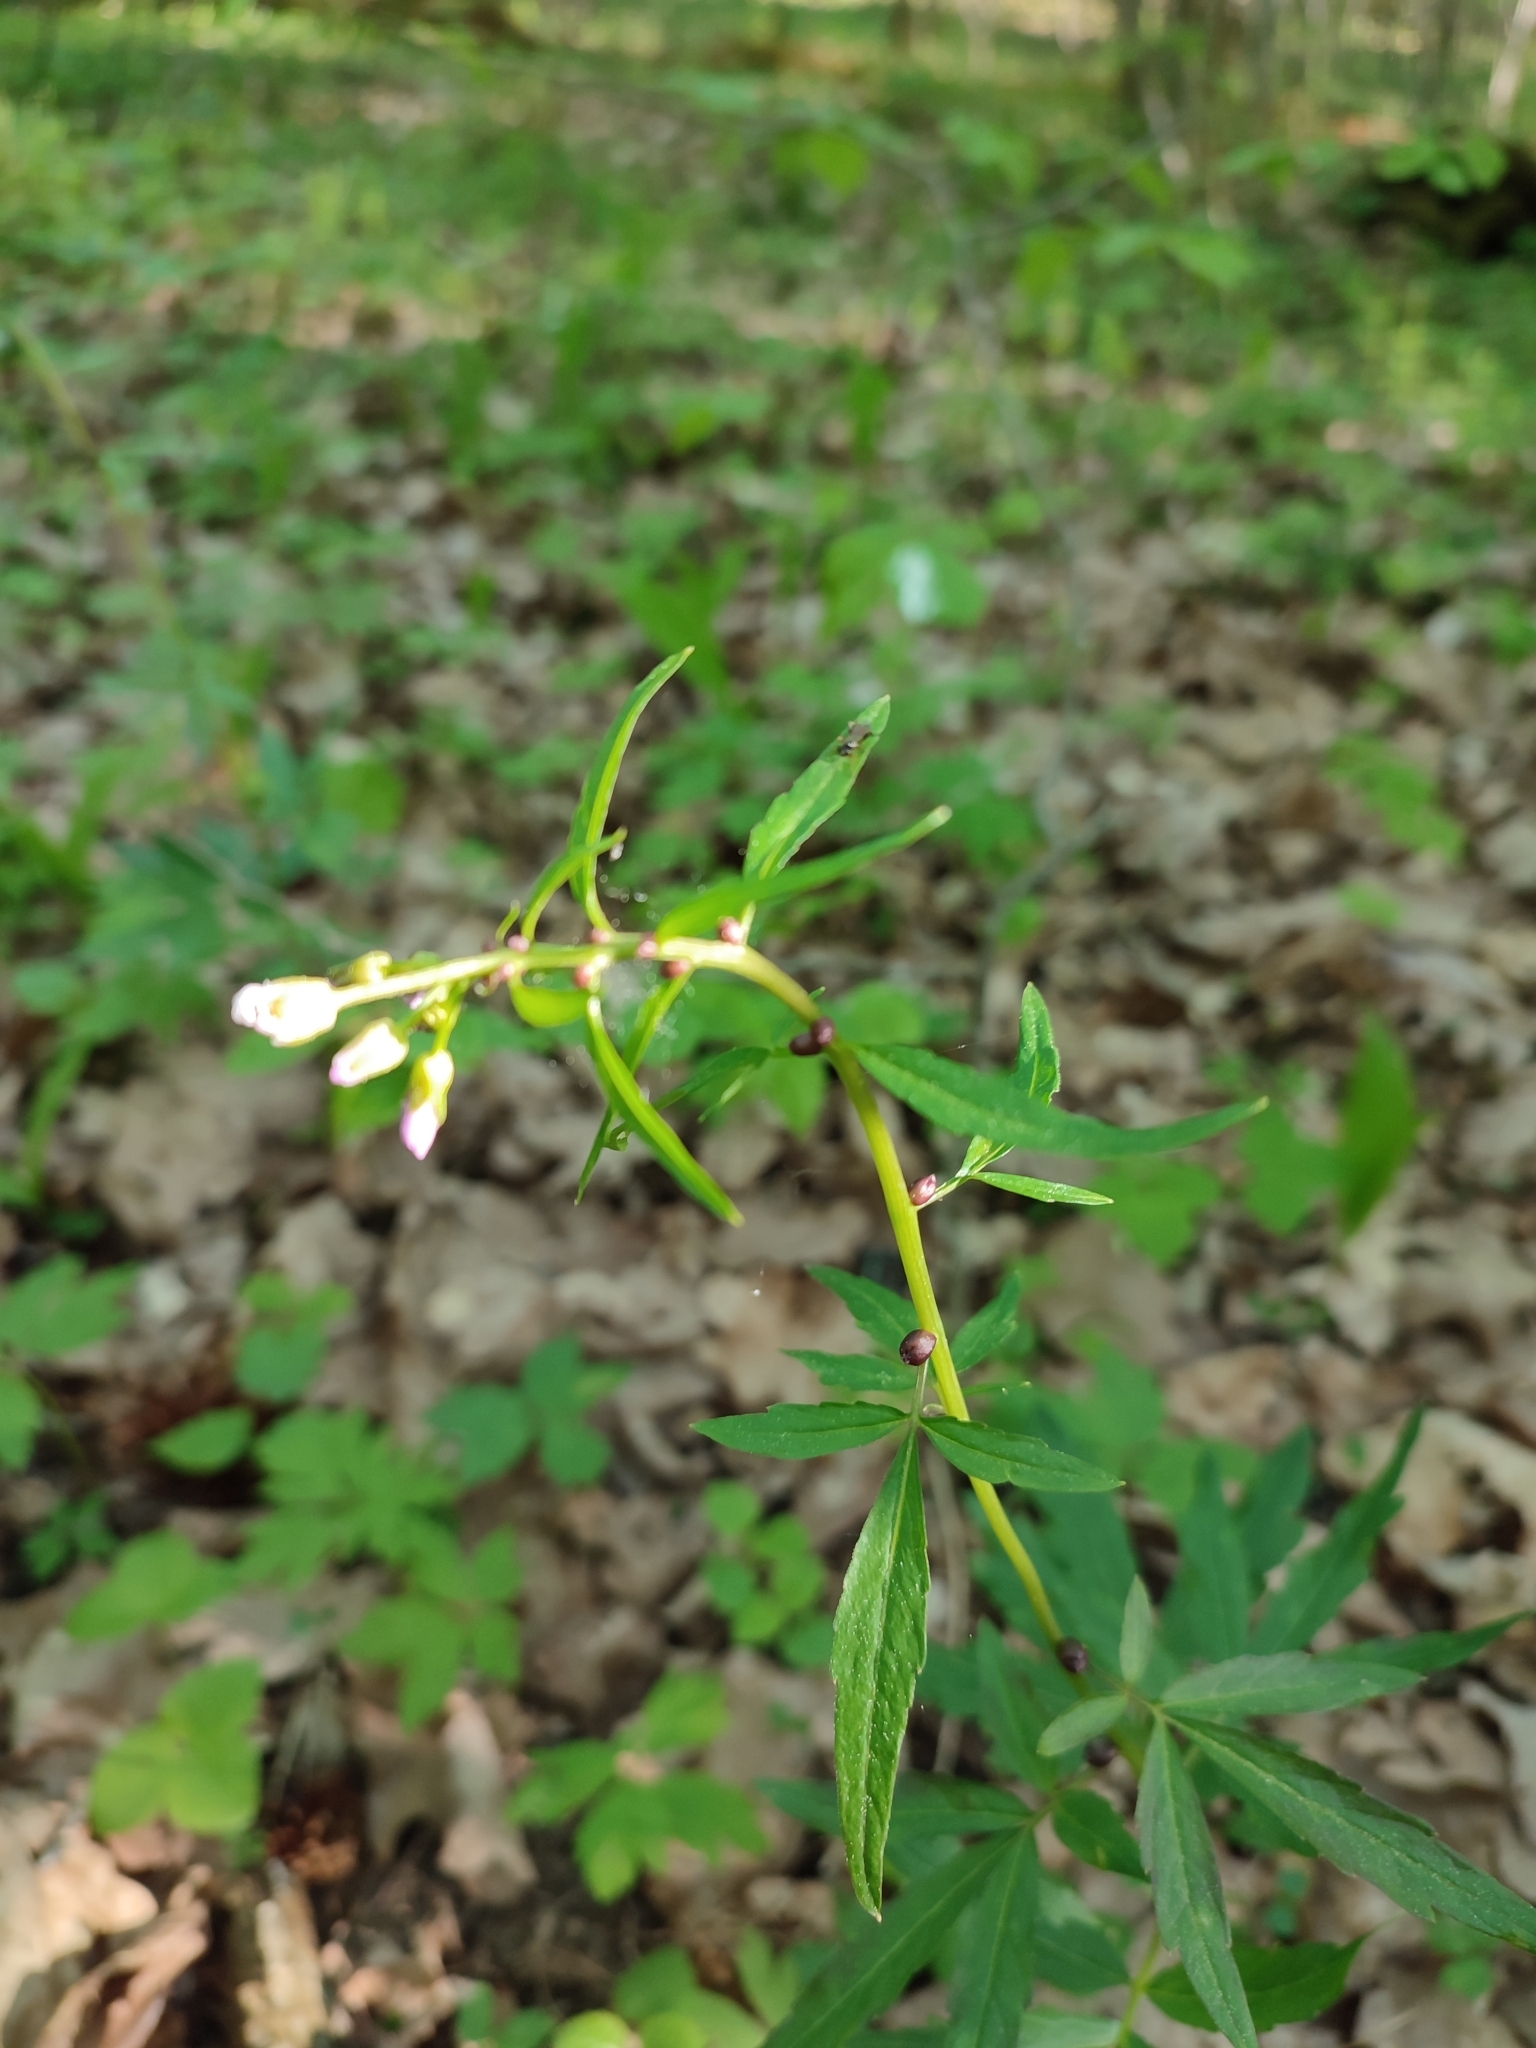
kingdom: Plantae
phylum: Tracheophyta
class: Magnoliopsida
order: Brassicales
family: Brassicaceae
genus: Cardamine
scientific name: Cardamine bulbifera
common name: Coralroot bittercress
